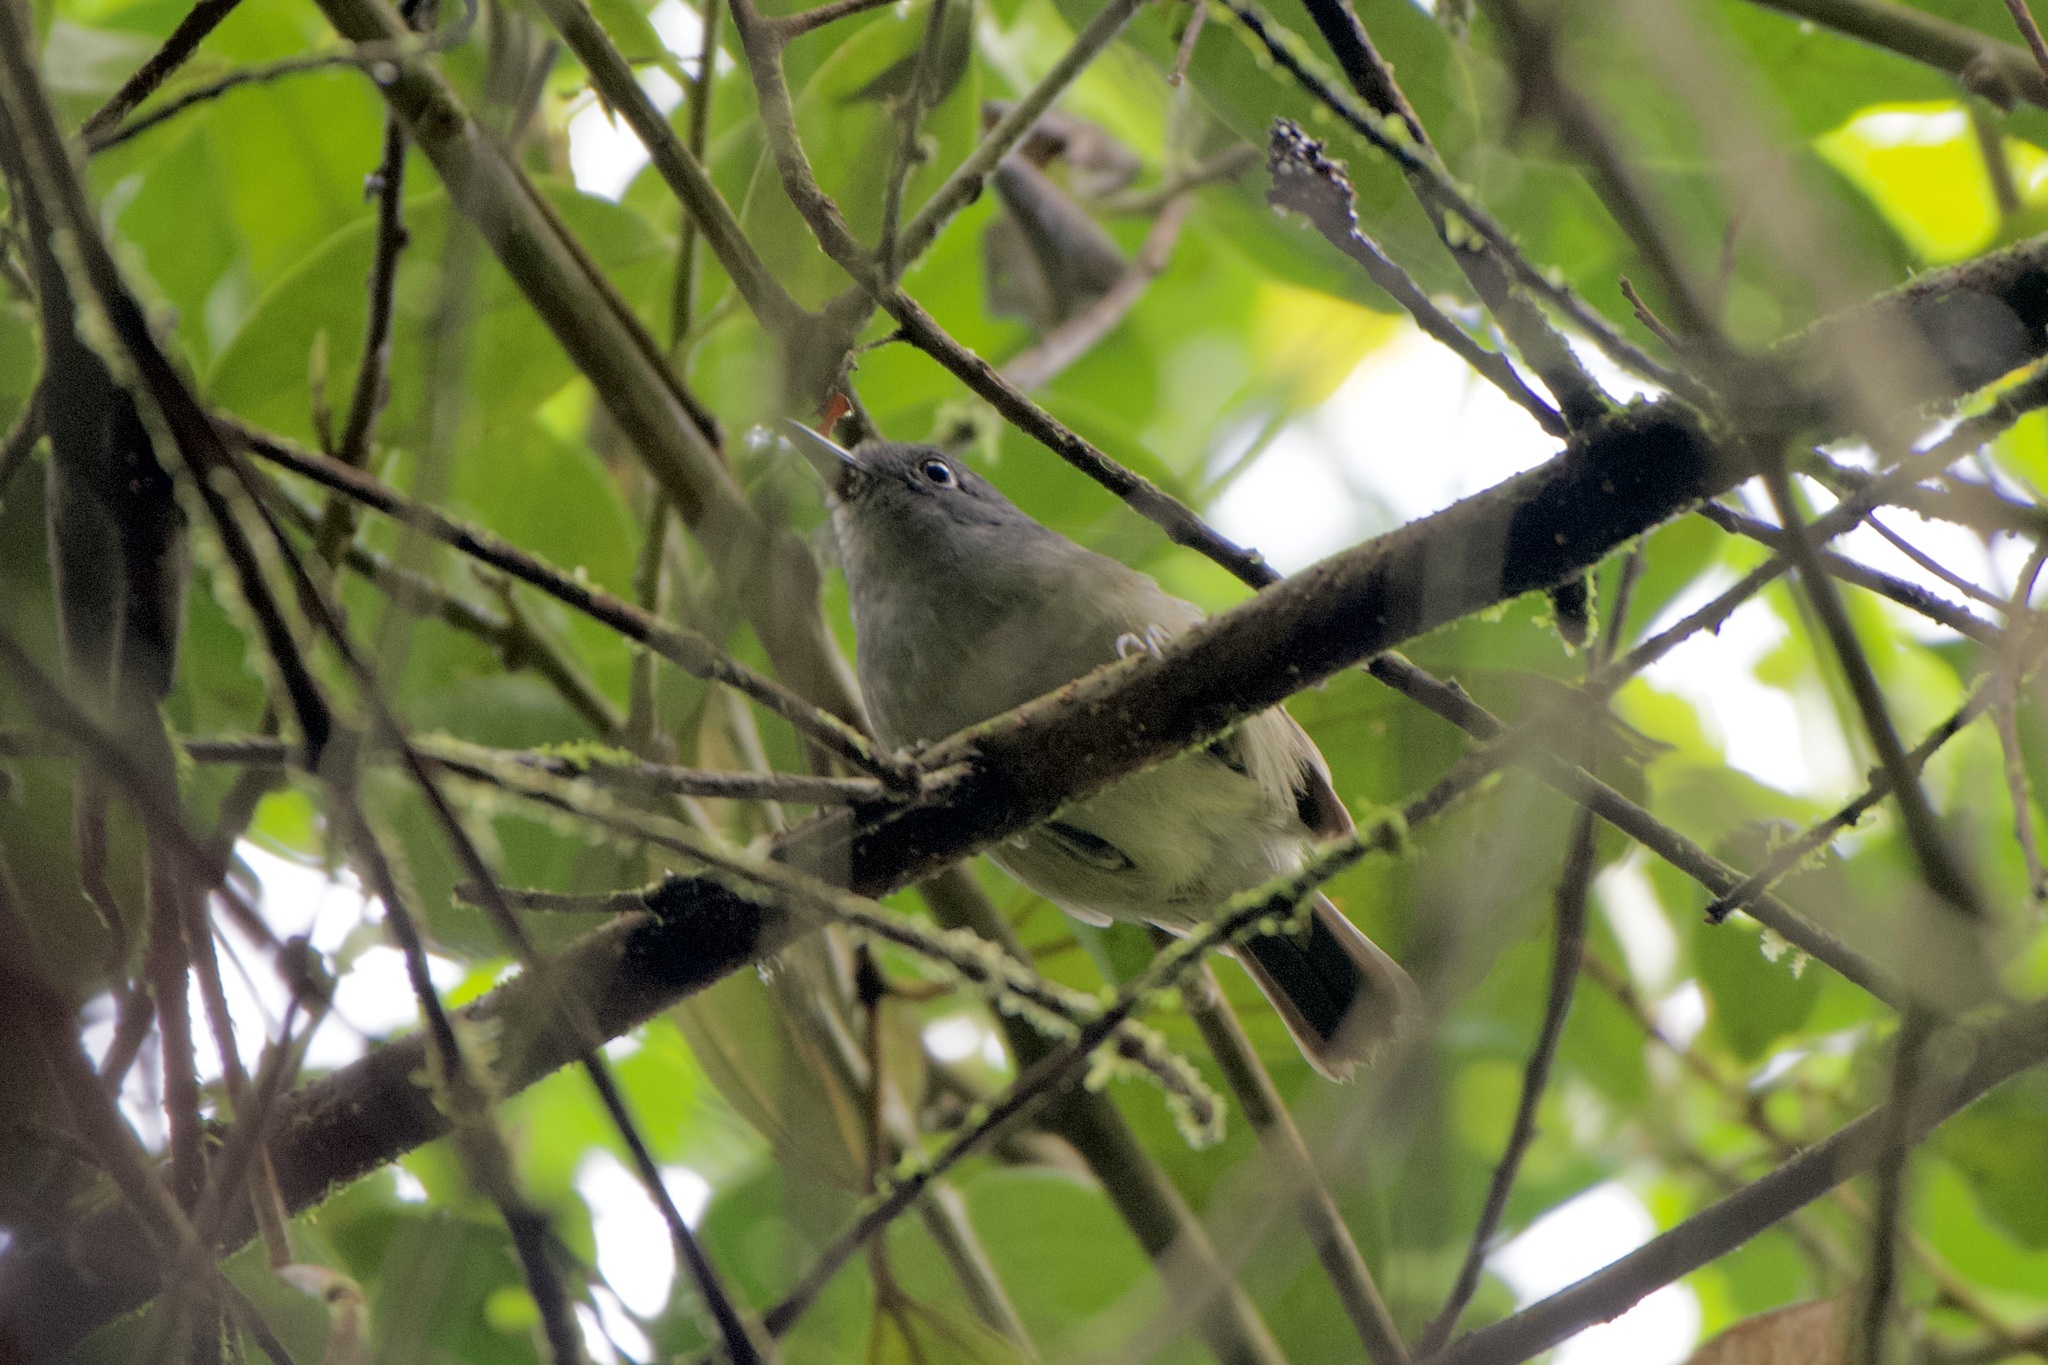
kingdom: Animalia
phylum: Chordata
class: Aves
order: Passeriformes
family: Thamnophilidae
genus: Dysithamnus
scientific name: Dysithamnus mentalis
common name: Plain antvireo
